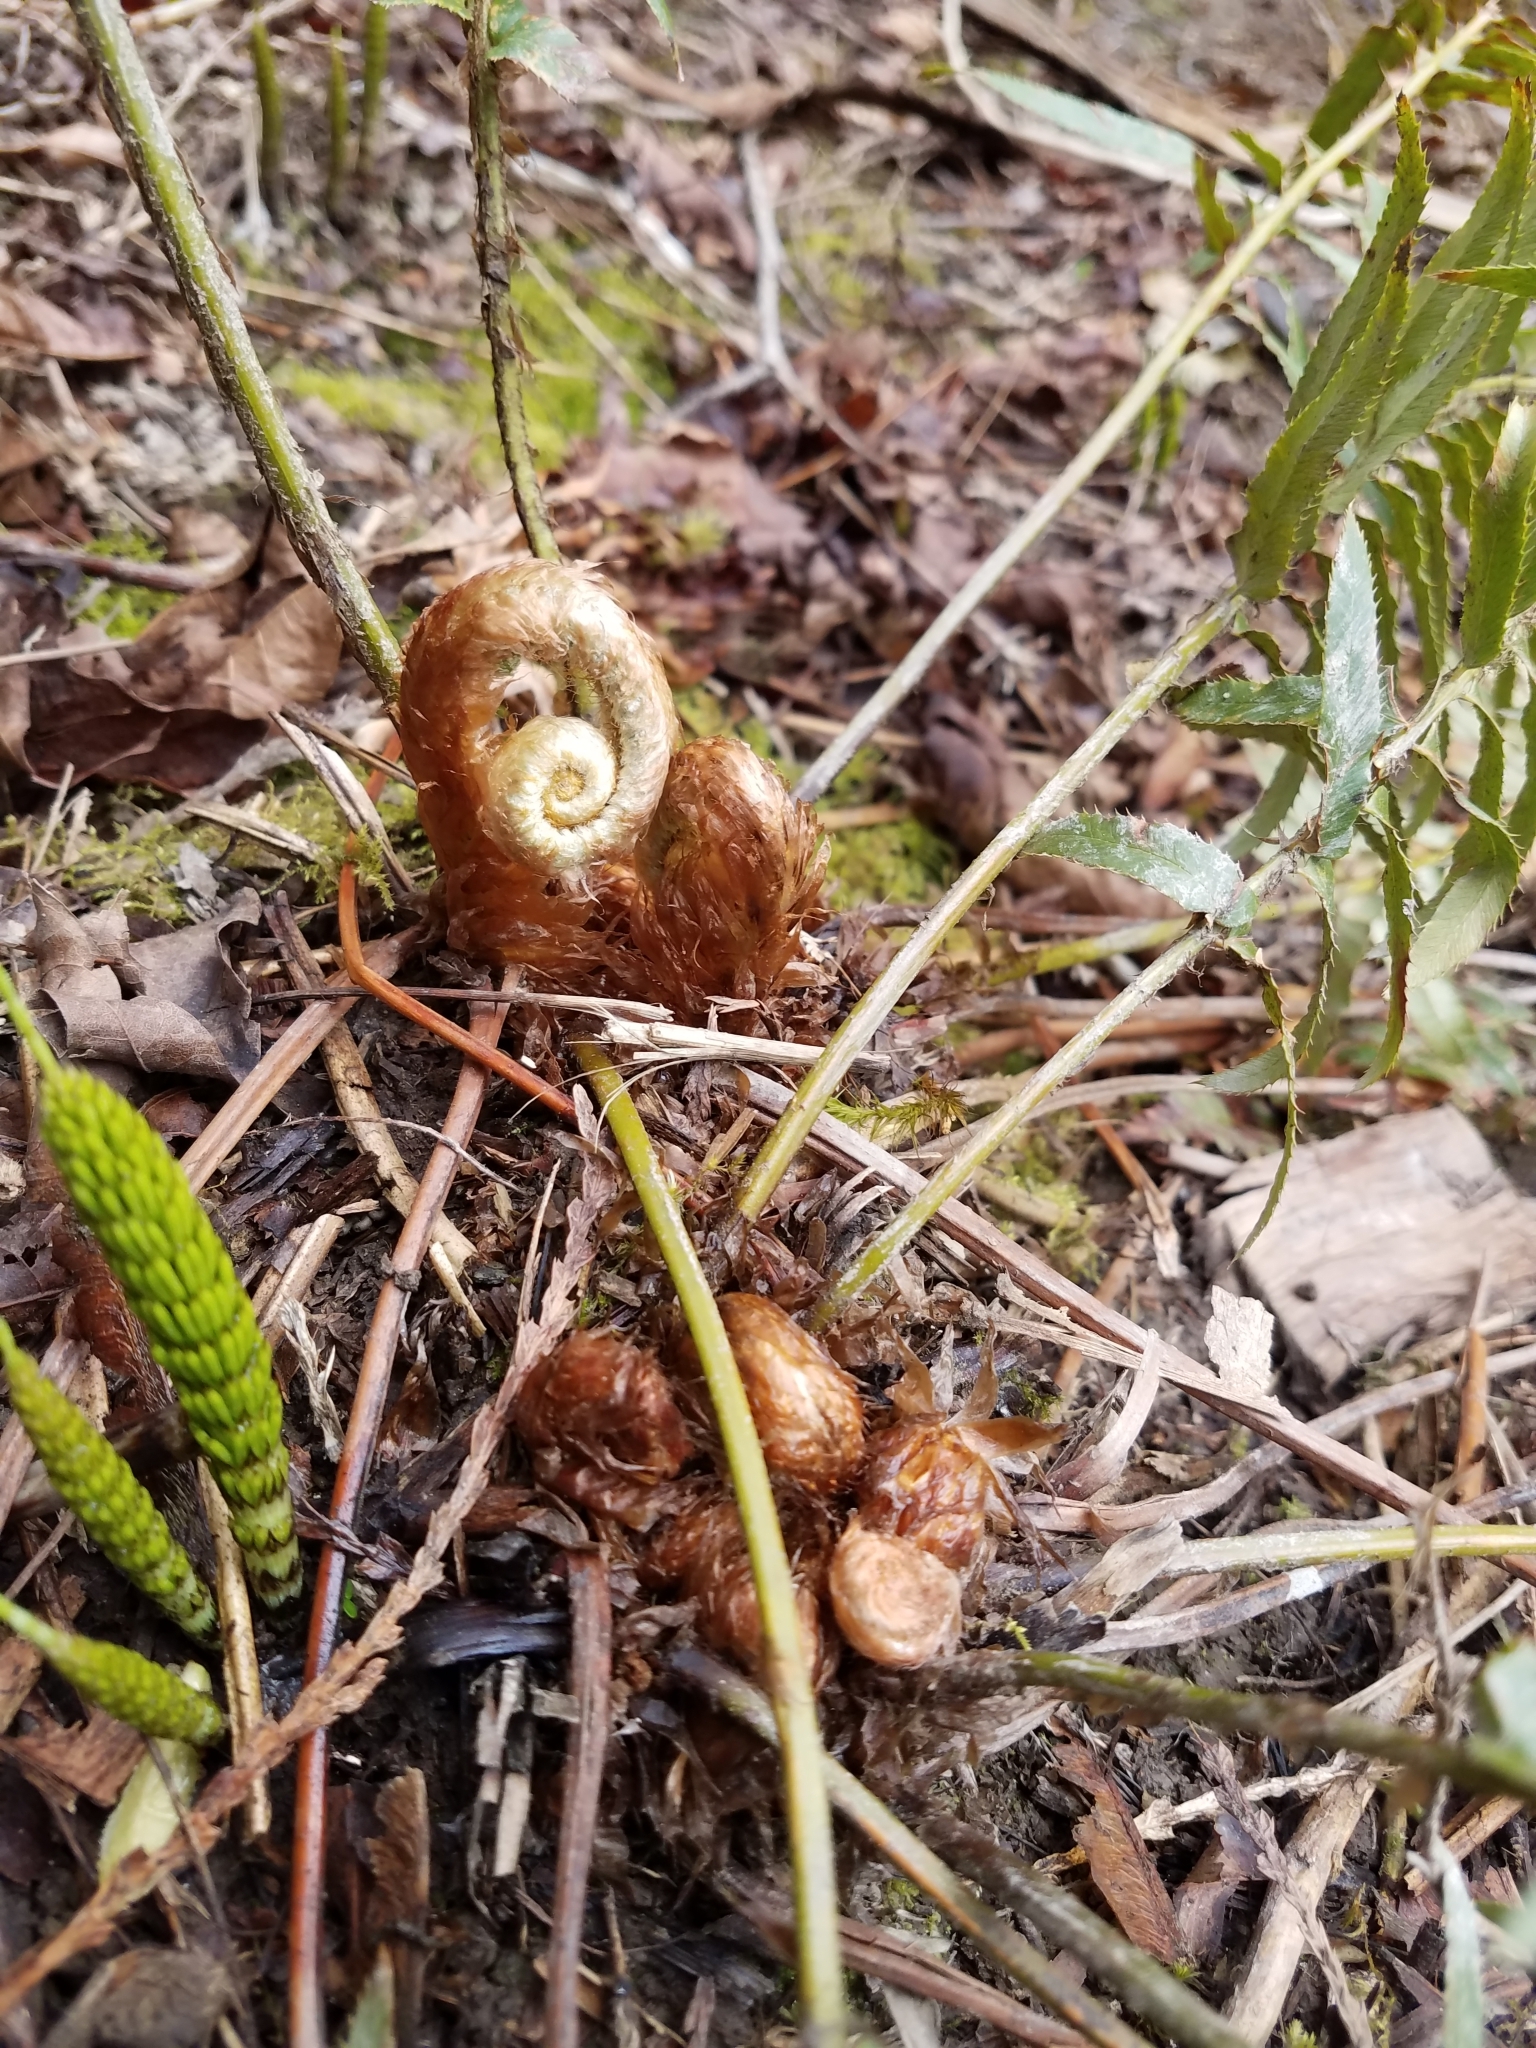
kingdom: Plantae
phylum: Tracheophyta
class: Polypodiopsida
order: Polypodiales
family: Dryopteridaceae
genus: Polystichum
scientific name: Polystichum munitum
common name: Western sword-fern
